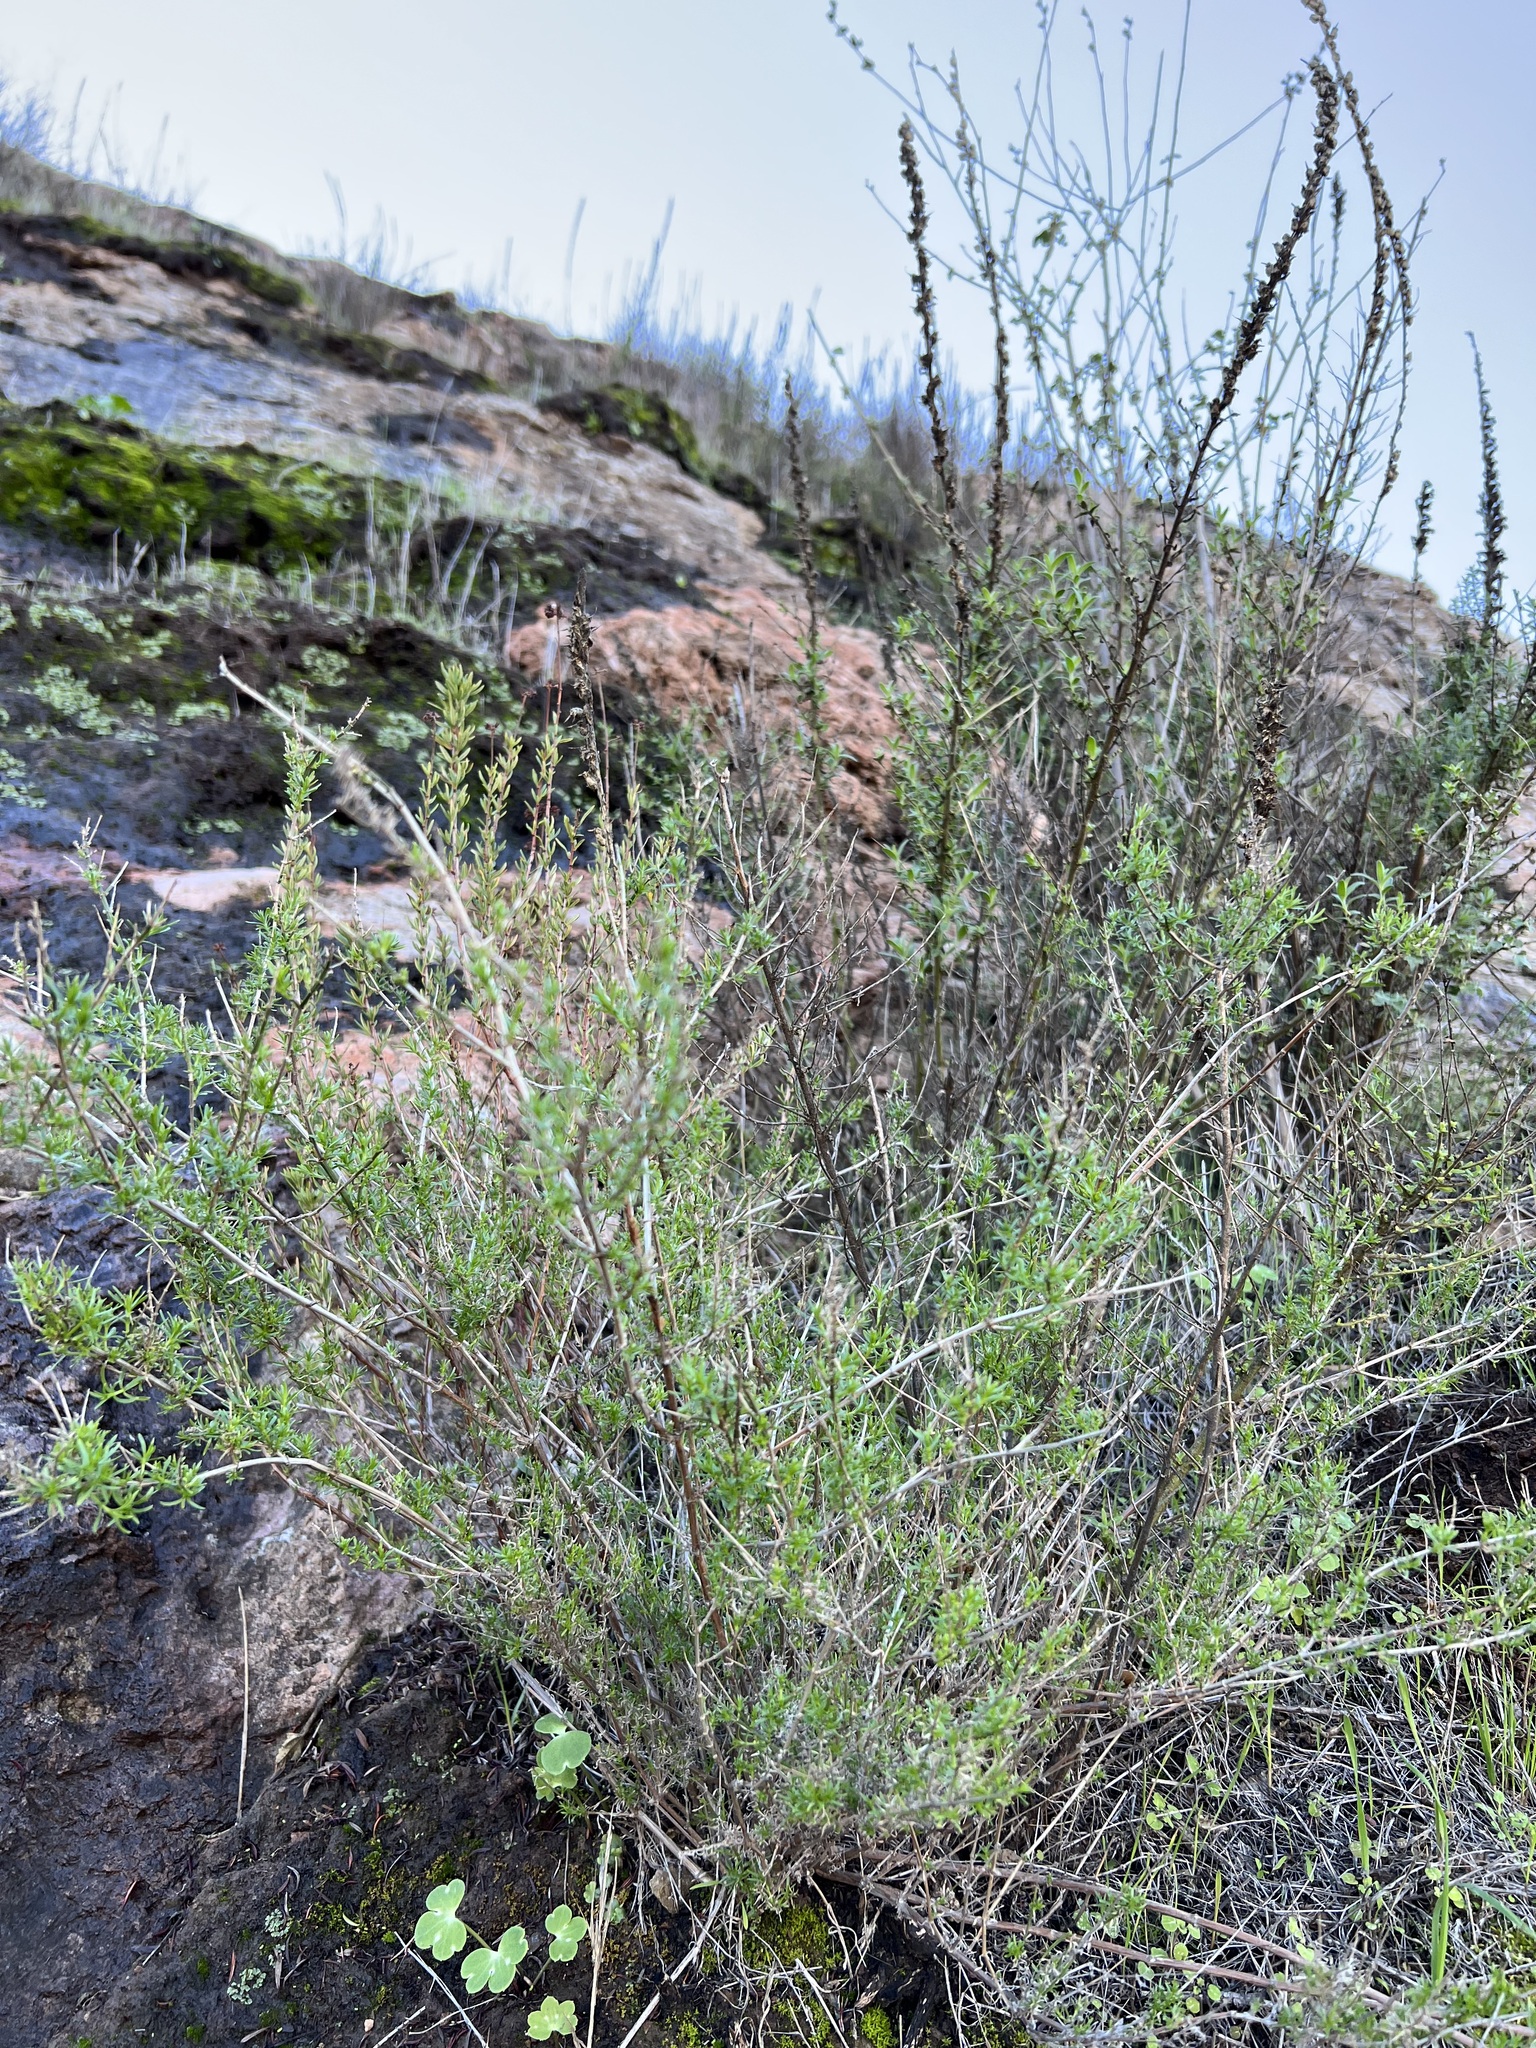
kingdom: Plantae
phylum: Tracheophyta
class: Magnoliopsida
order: Rosales
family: Rosaceae
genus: Adenostoma
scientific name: Adenostoma fasciculatum
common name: Chamise
